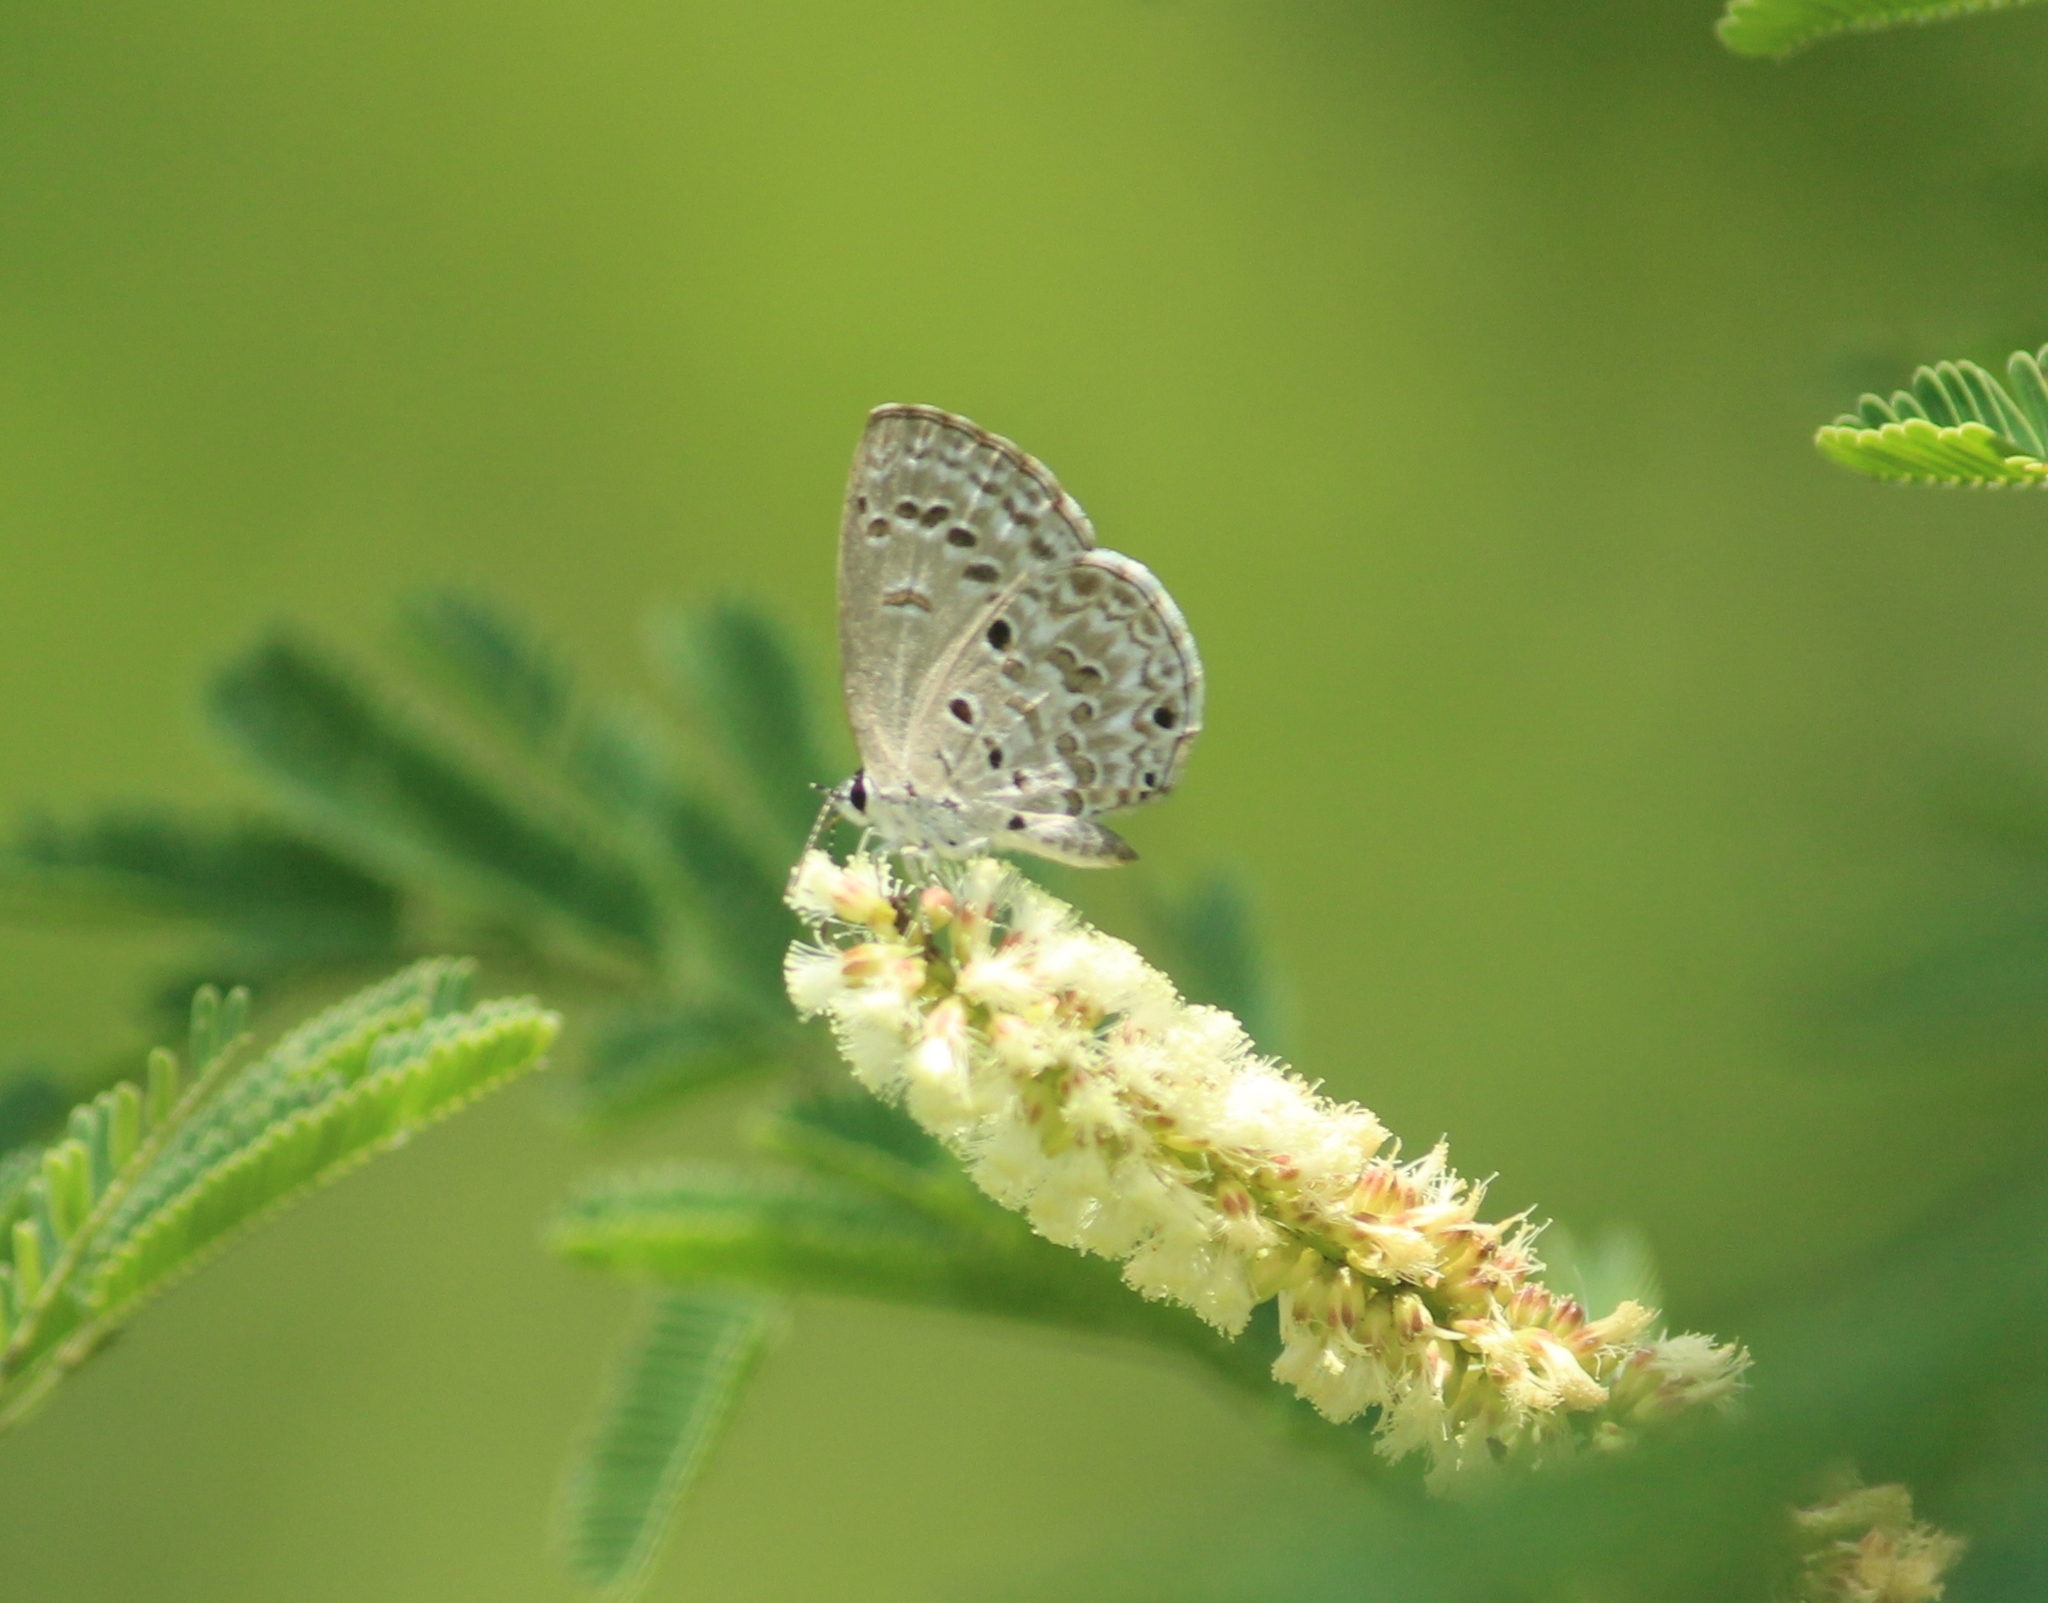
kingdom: Animalia
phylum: Arthropoda
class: Insecta
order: Lepidoptera
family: Lycaenidae
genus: Chilades
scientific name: Chilades laius
